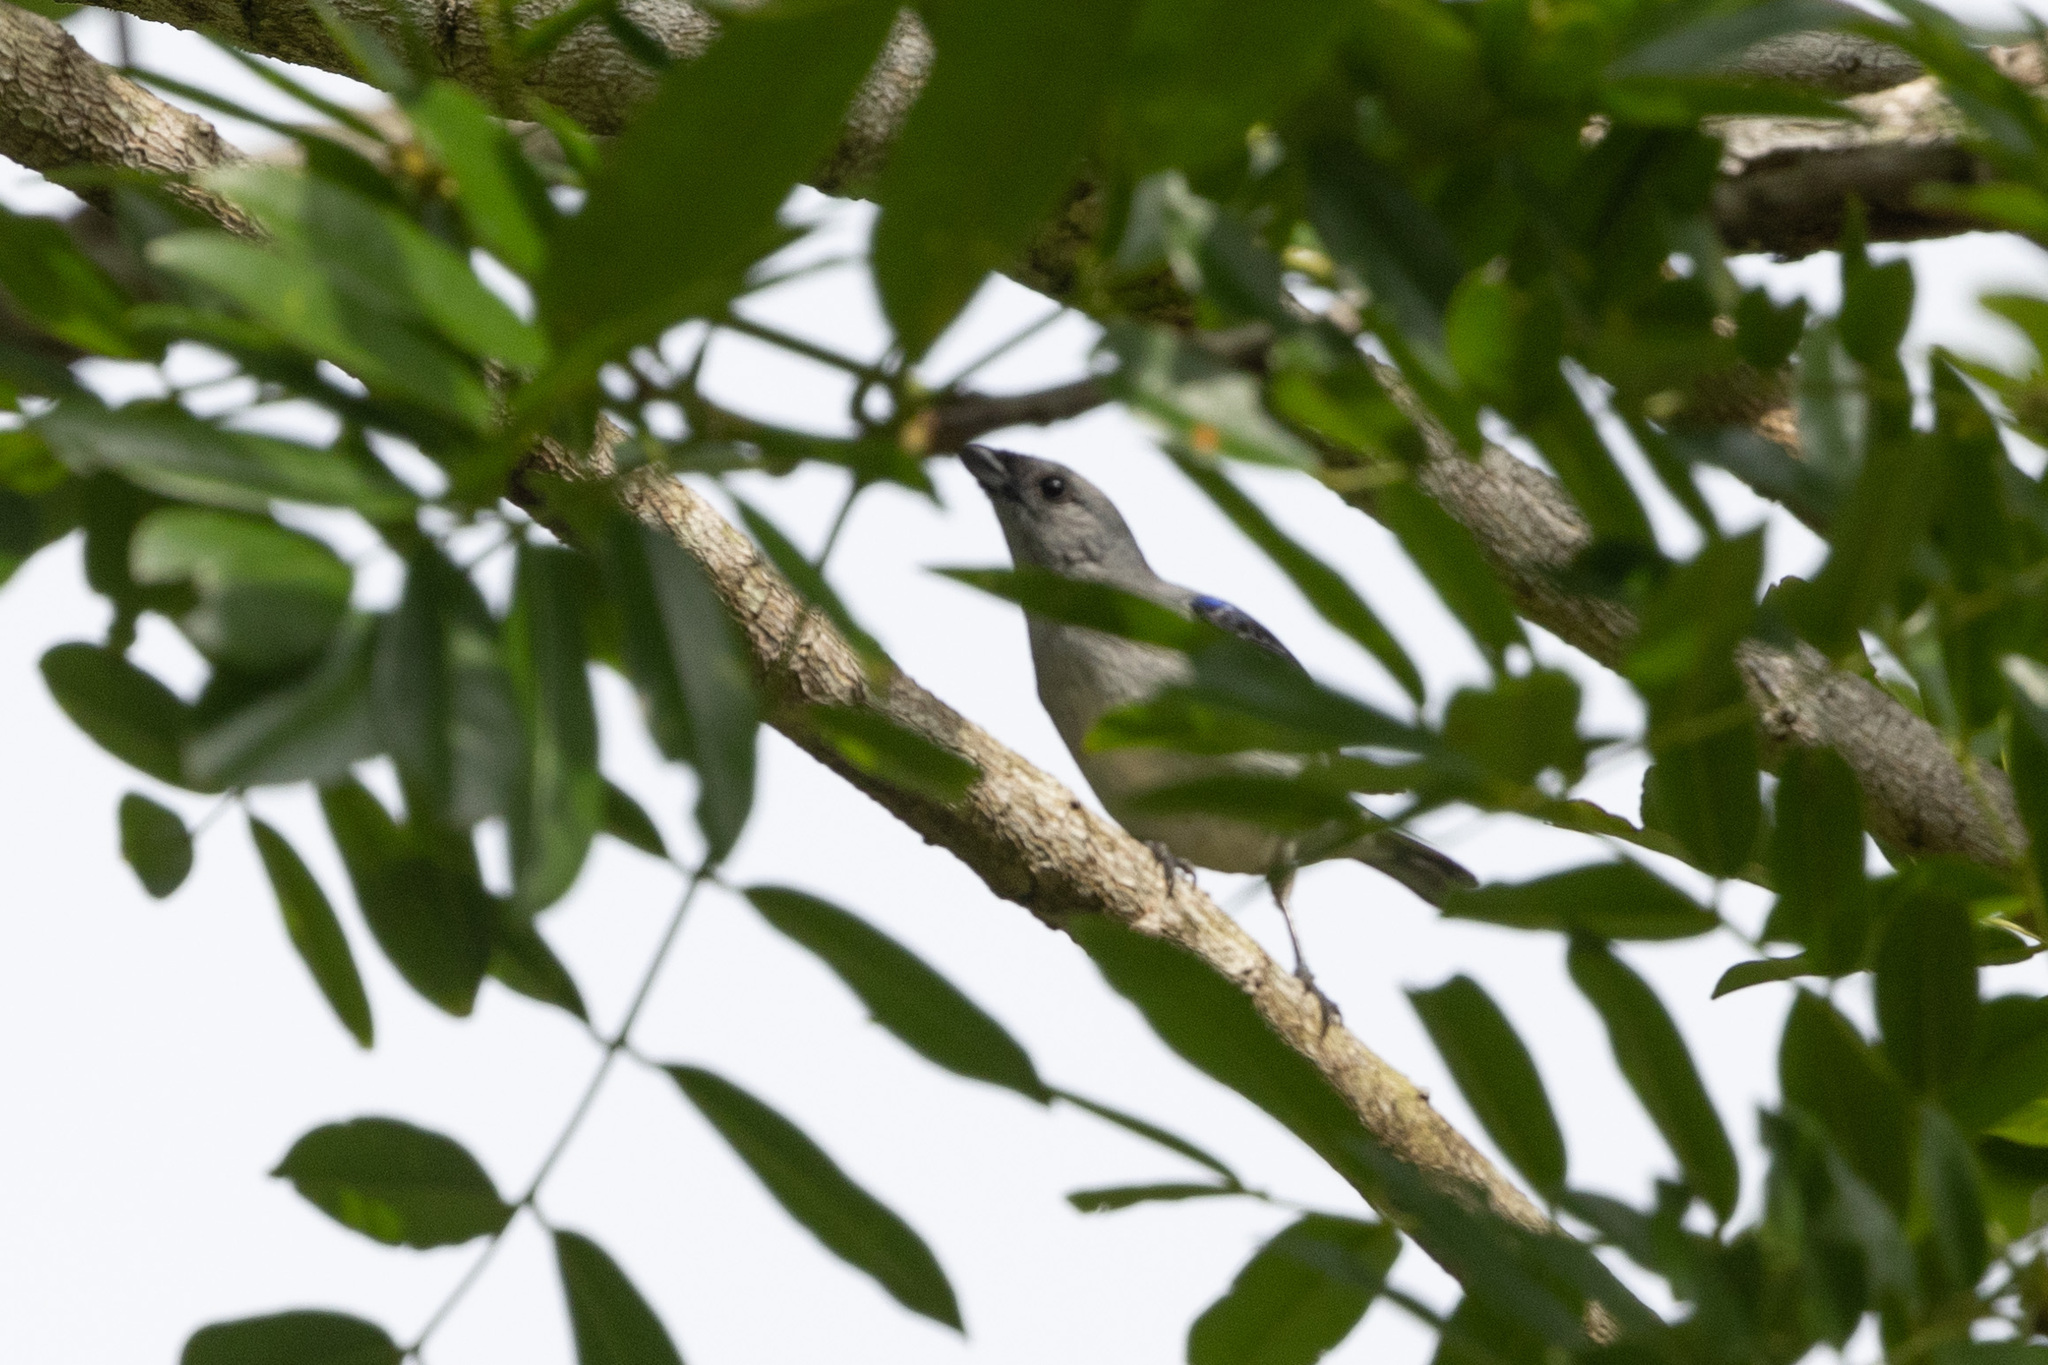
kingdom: Animalia
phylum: Chordata
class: Aves
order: Passeriformes
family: Thraupidae
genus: Tangara
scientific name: Tangara inornata
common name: Plain-colored tanager
